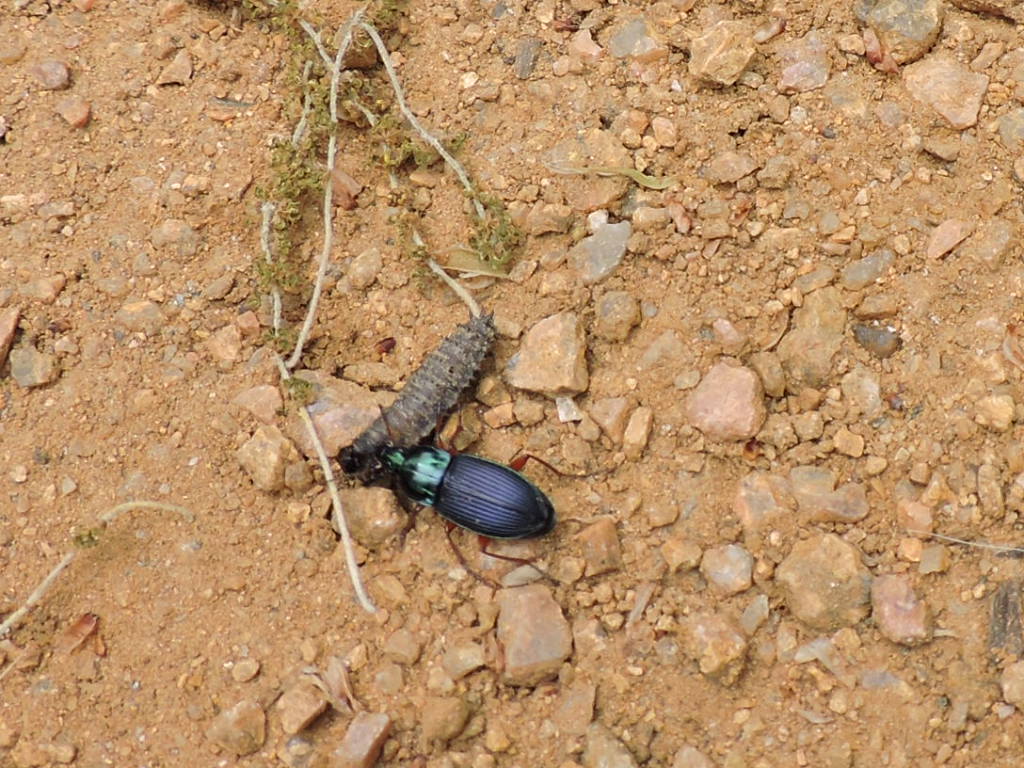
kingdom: Animalia
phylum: Arthropoda
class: Insecta
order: Coleoptera
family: Carabidae
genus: Poecilus
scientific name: Poecilus lucublandus
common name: Woodland ground beetle
